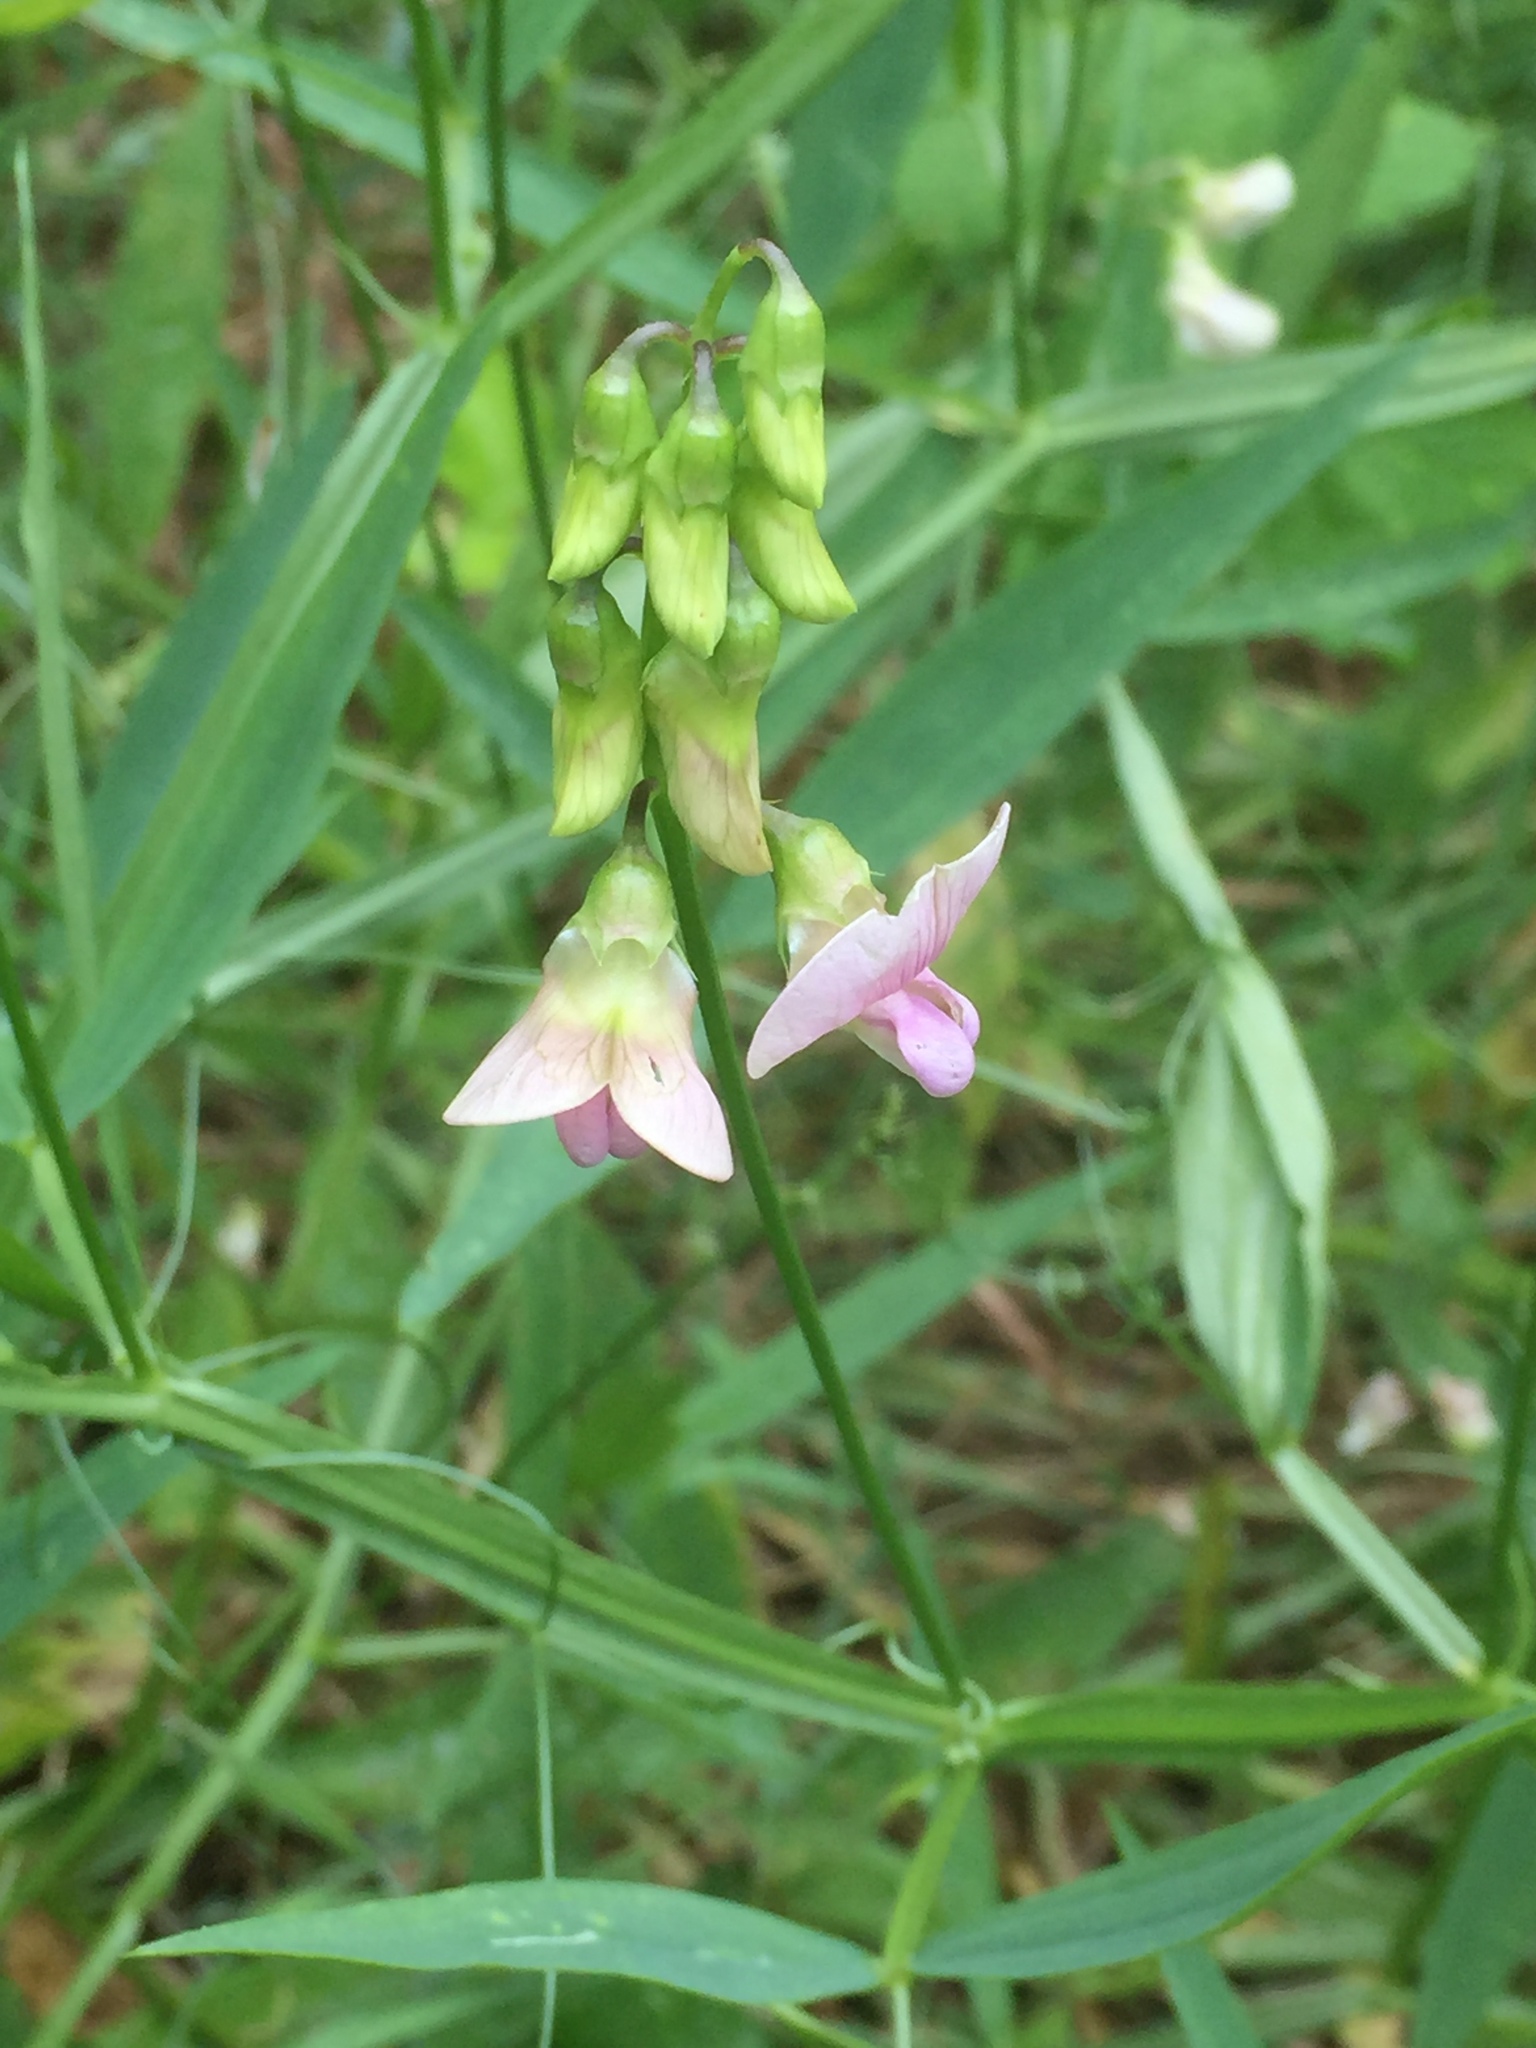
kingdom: Plantae
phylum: Tracheophyta
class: Magnoliopsida
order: Fabales
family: Fabaceae
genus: Lathyrus
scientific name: Lathyrus sylvestris
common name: Flat pea
